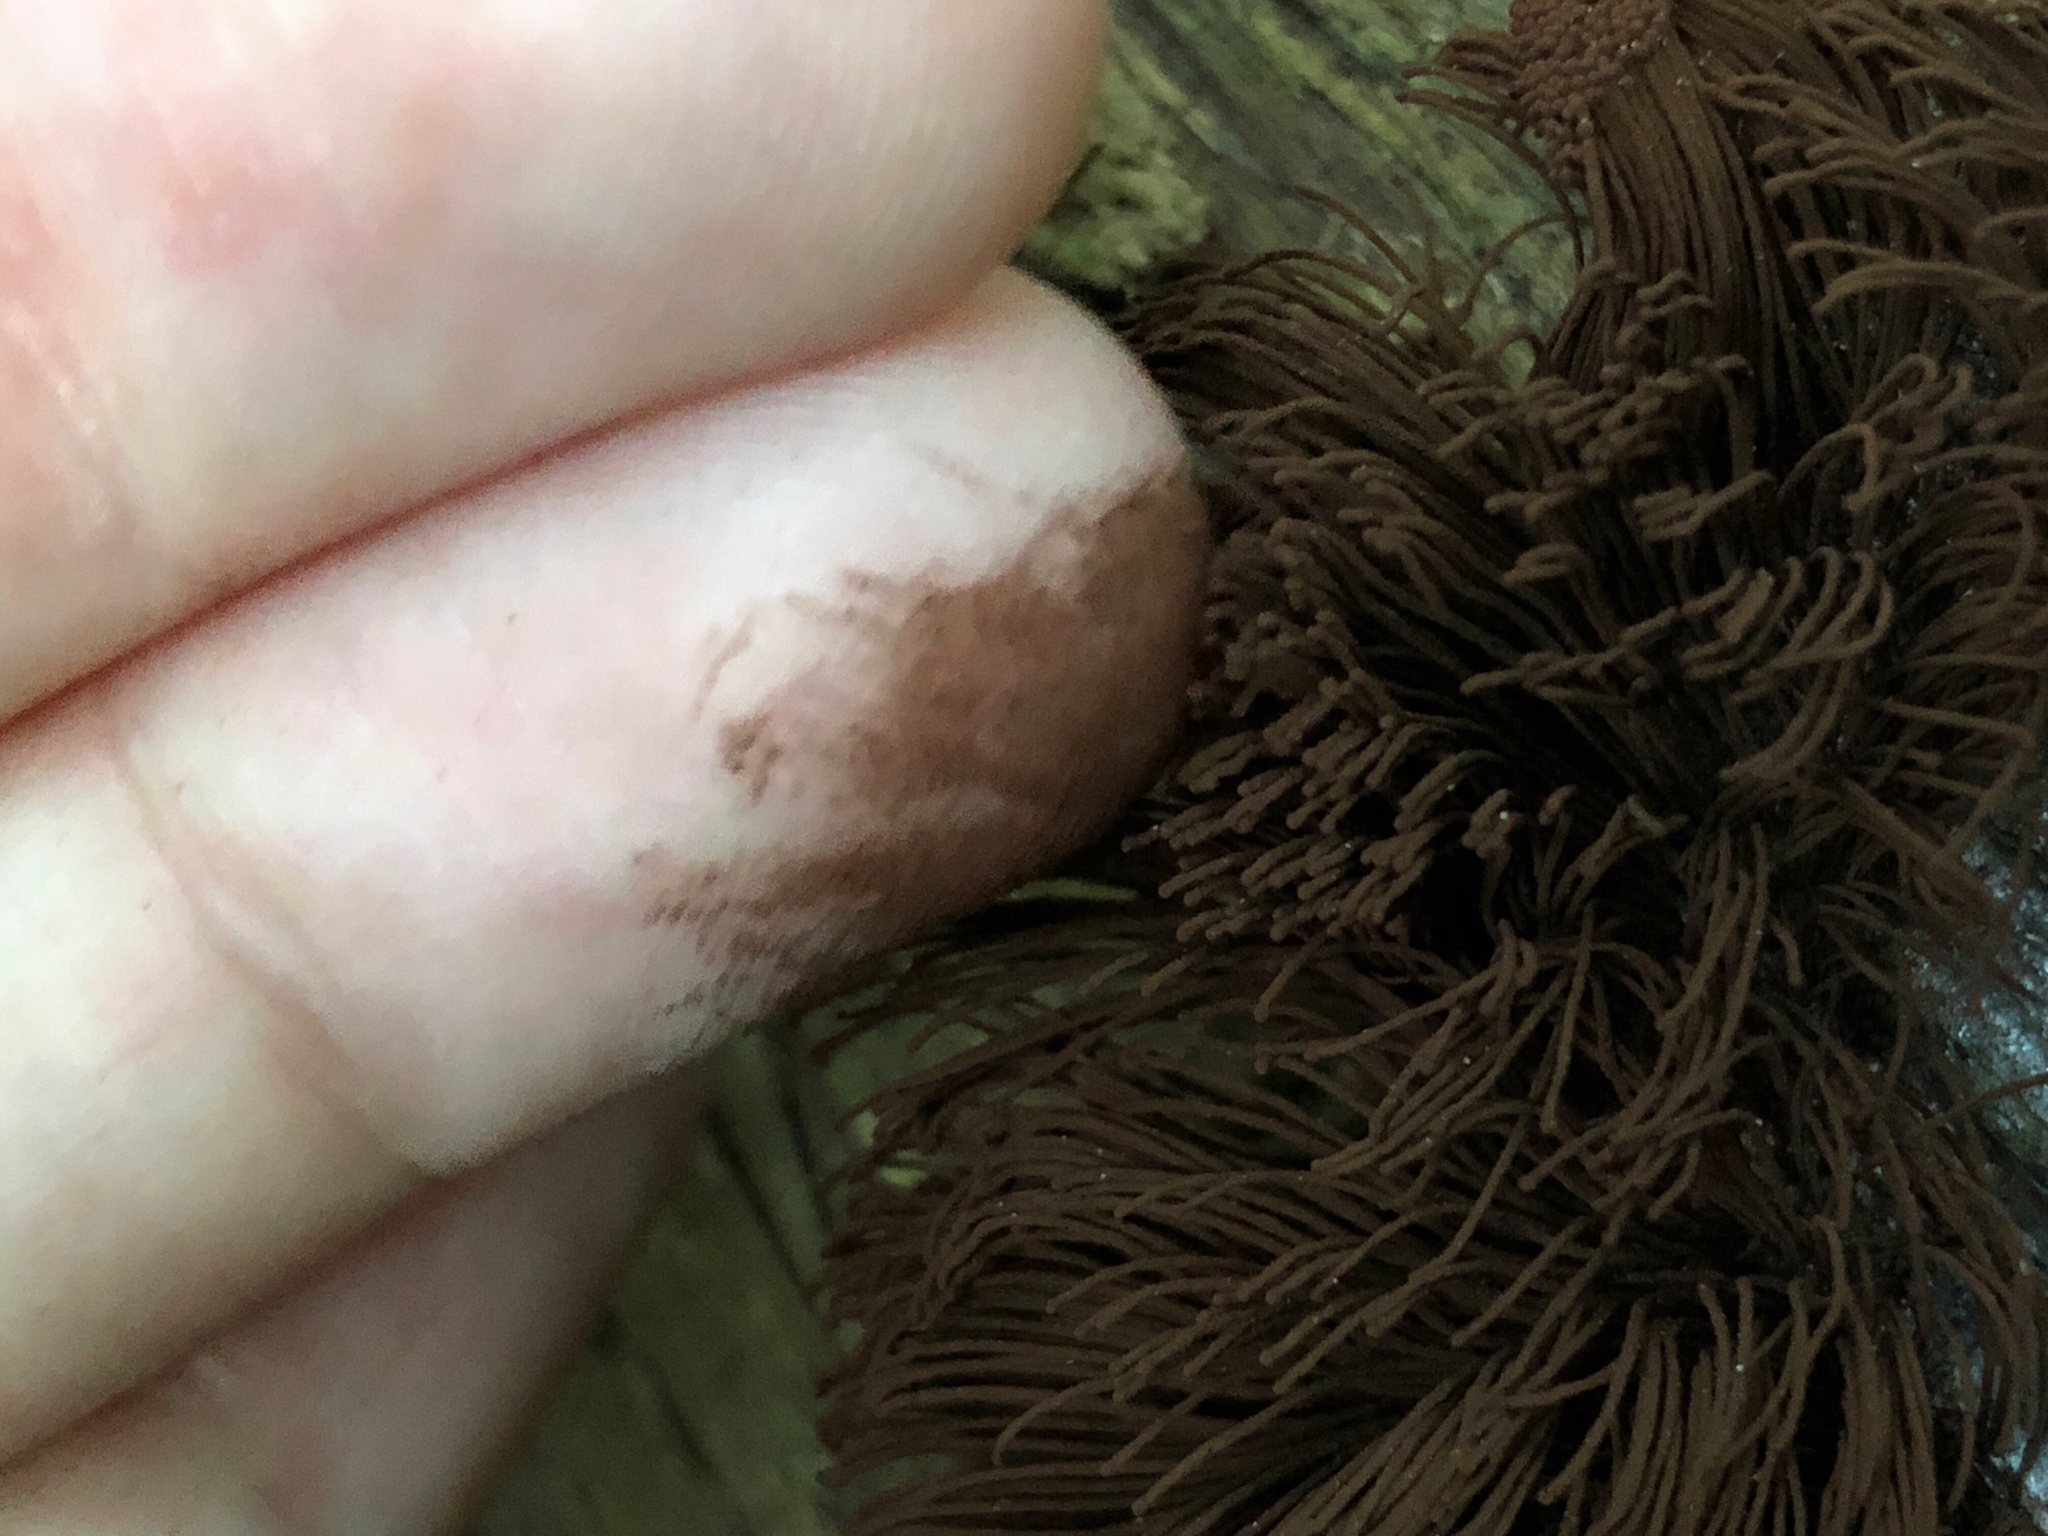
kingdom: Protozoa
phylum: Mycetozoa
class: Myxomycetes
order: Stemonitidales
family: Stemonitidaceae
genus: Stemonitis
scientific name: Stemonitis splendens
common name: Chocolate tube slime
